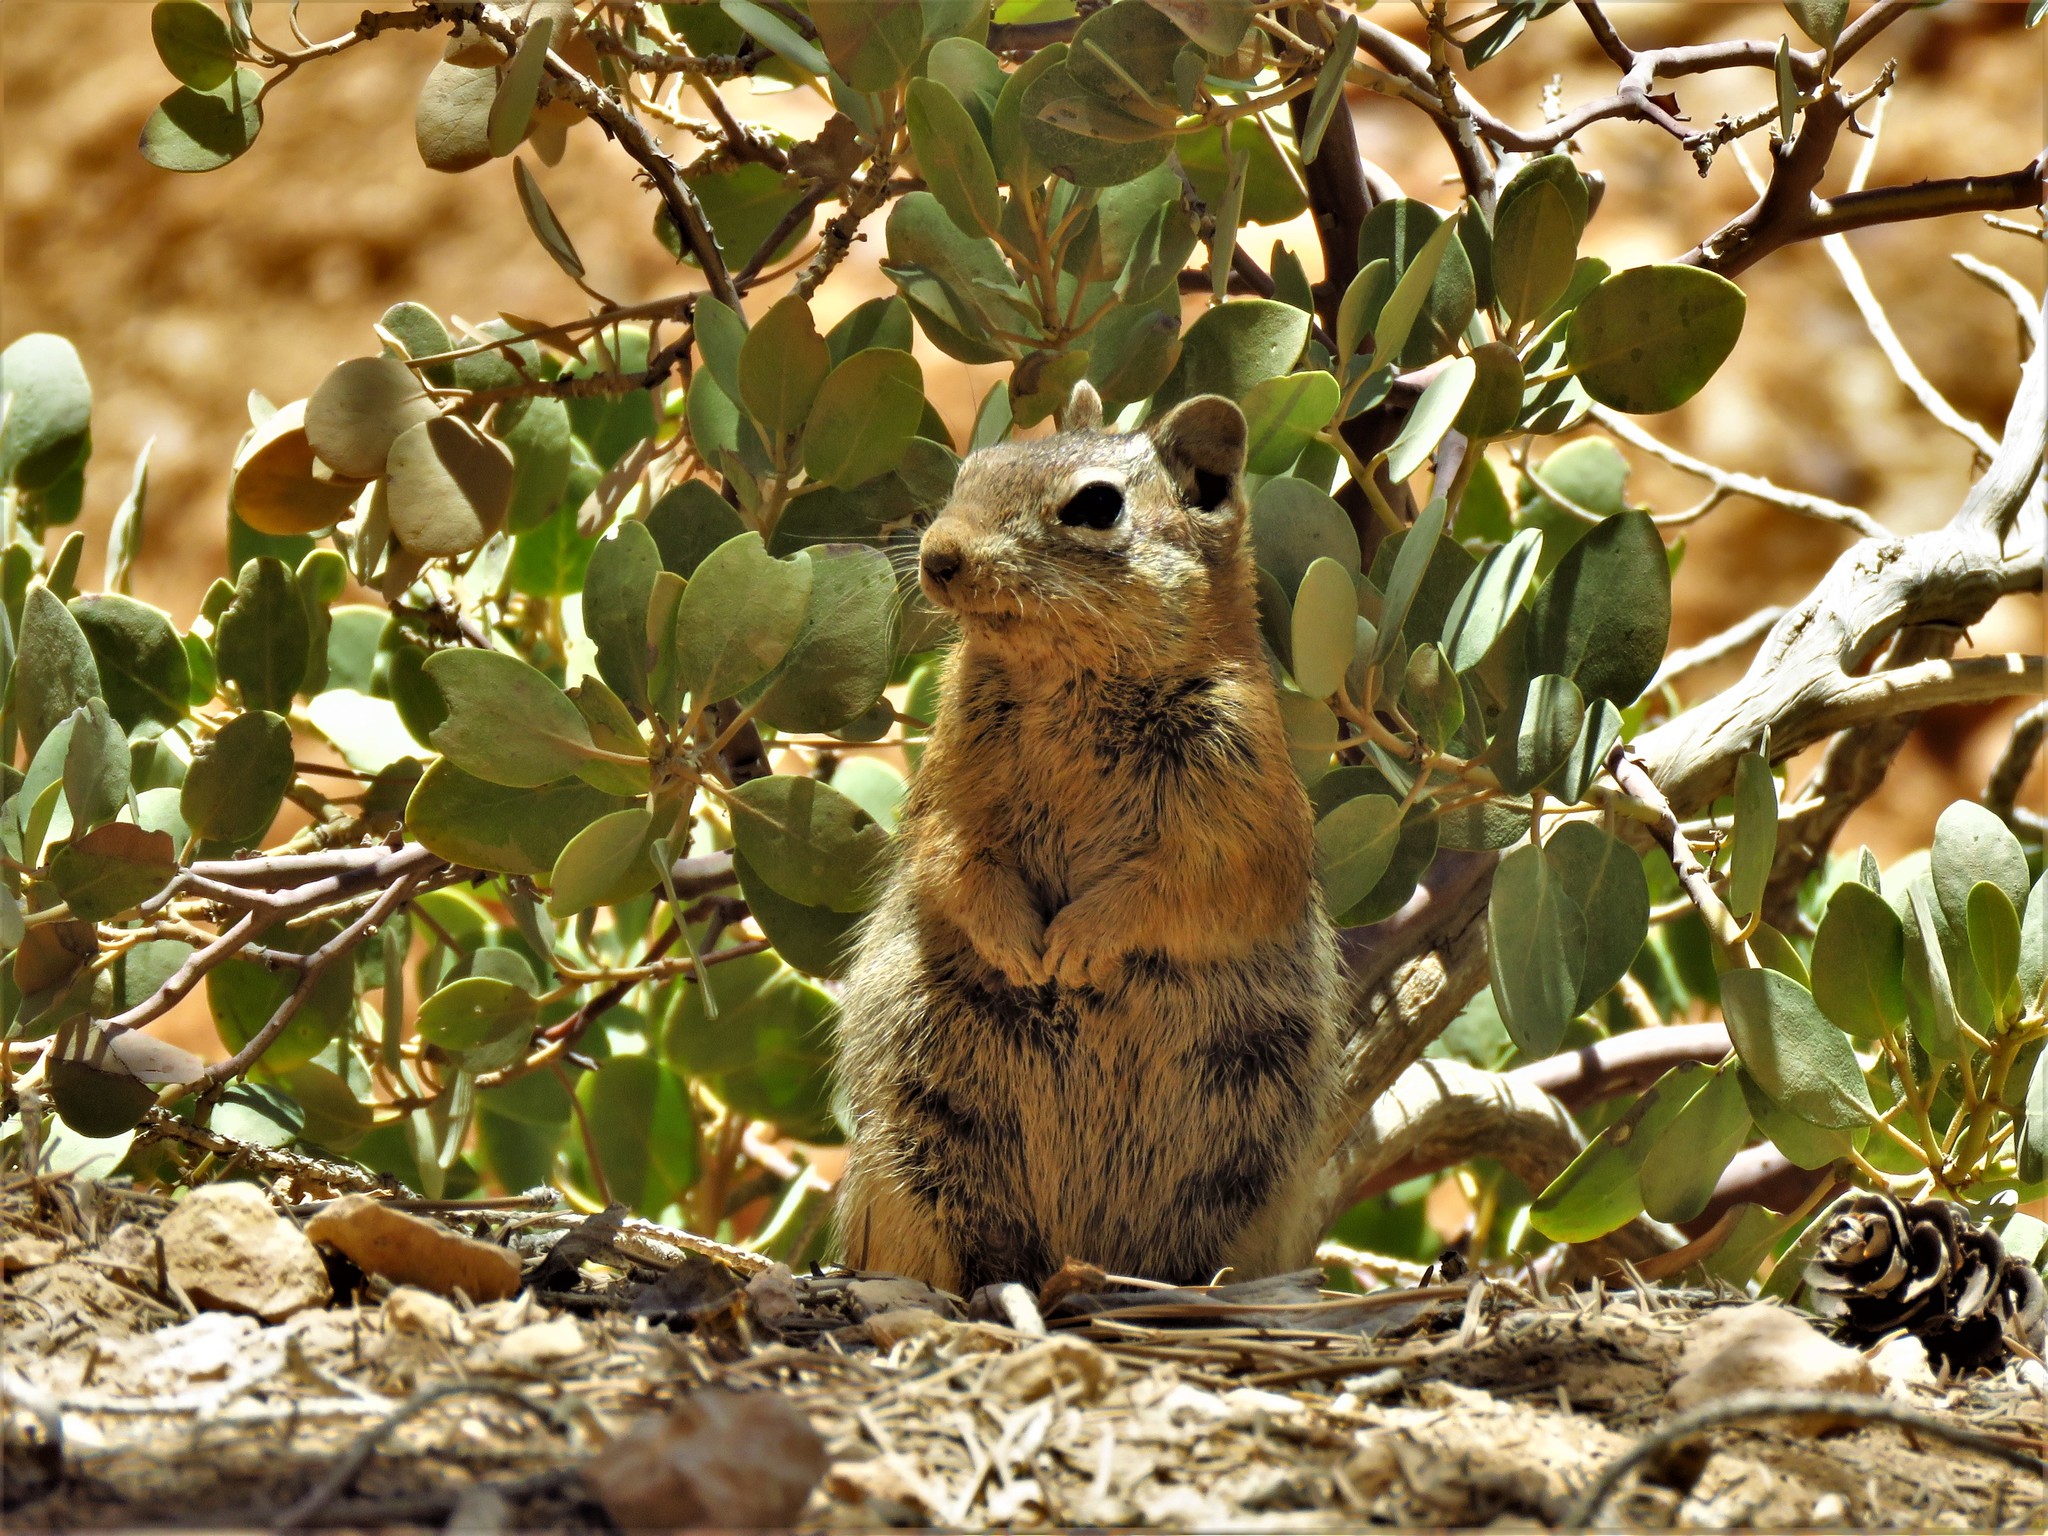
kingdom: Animalia
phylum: Chordata
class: Mammalia
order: Rodentia
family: Sciuridae
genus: Callospermophilus
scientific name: Callospermophilus lateralis
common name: Golden-mantled ground squirrel
